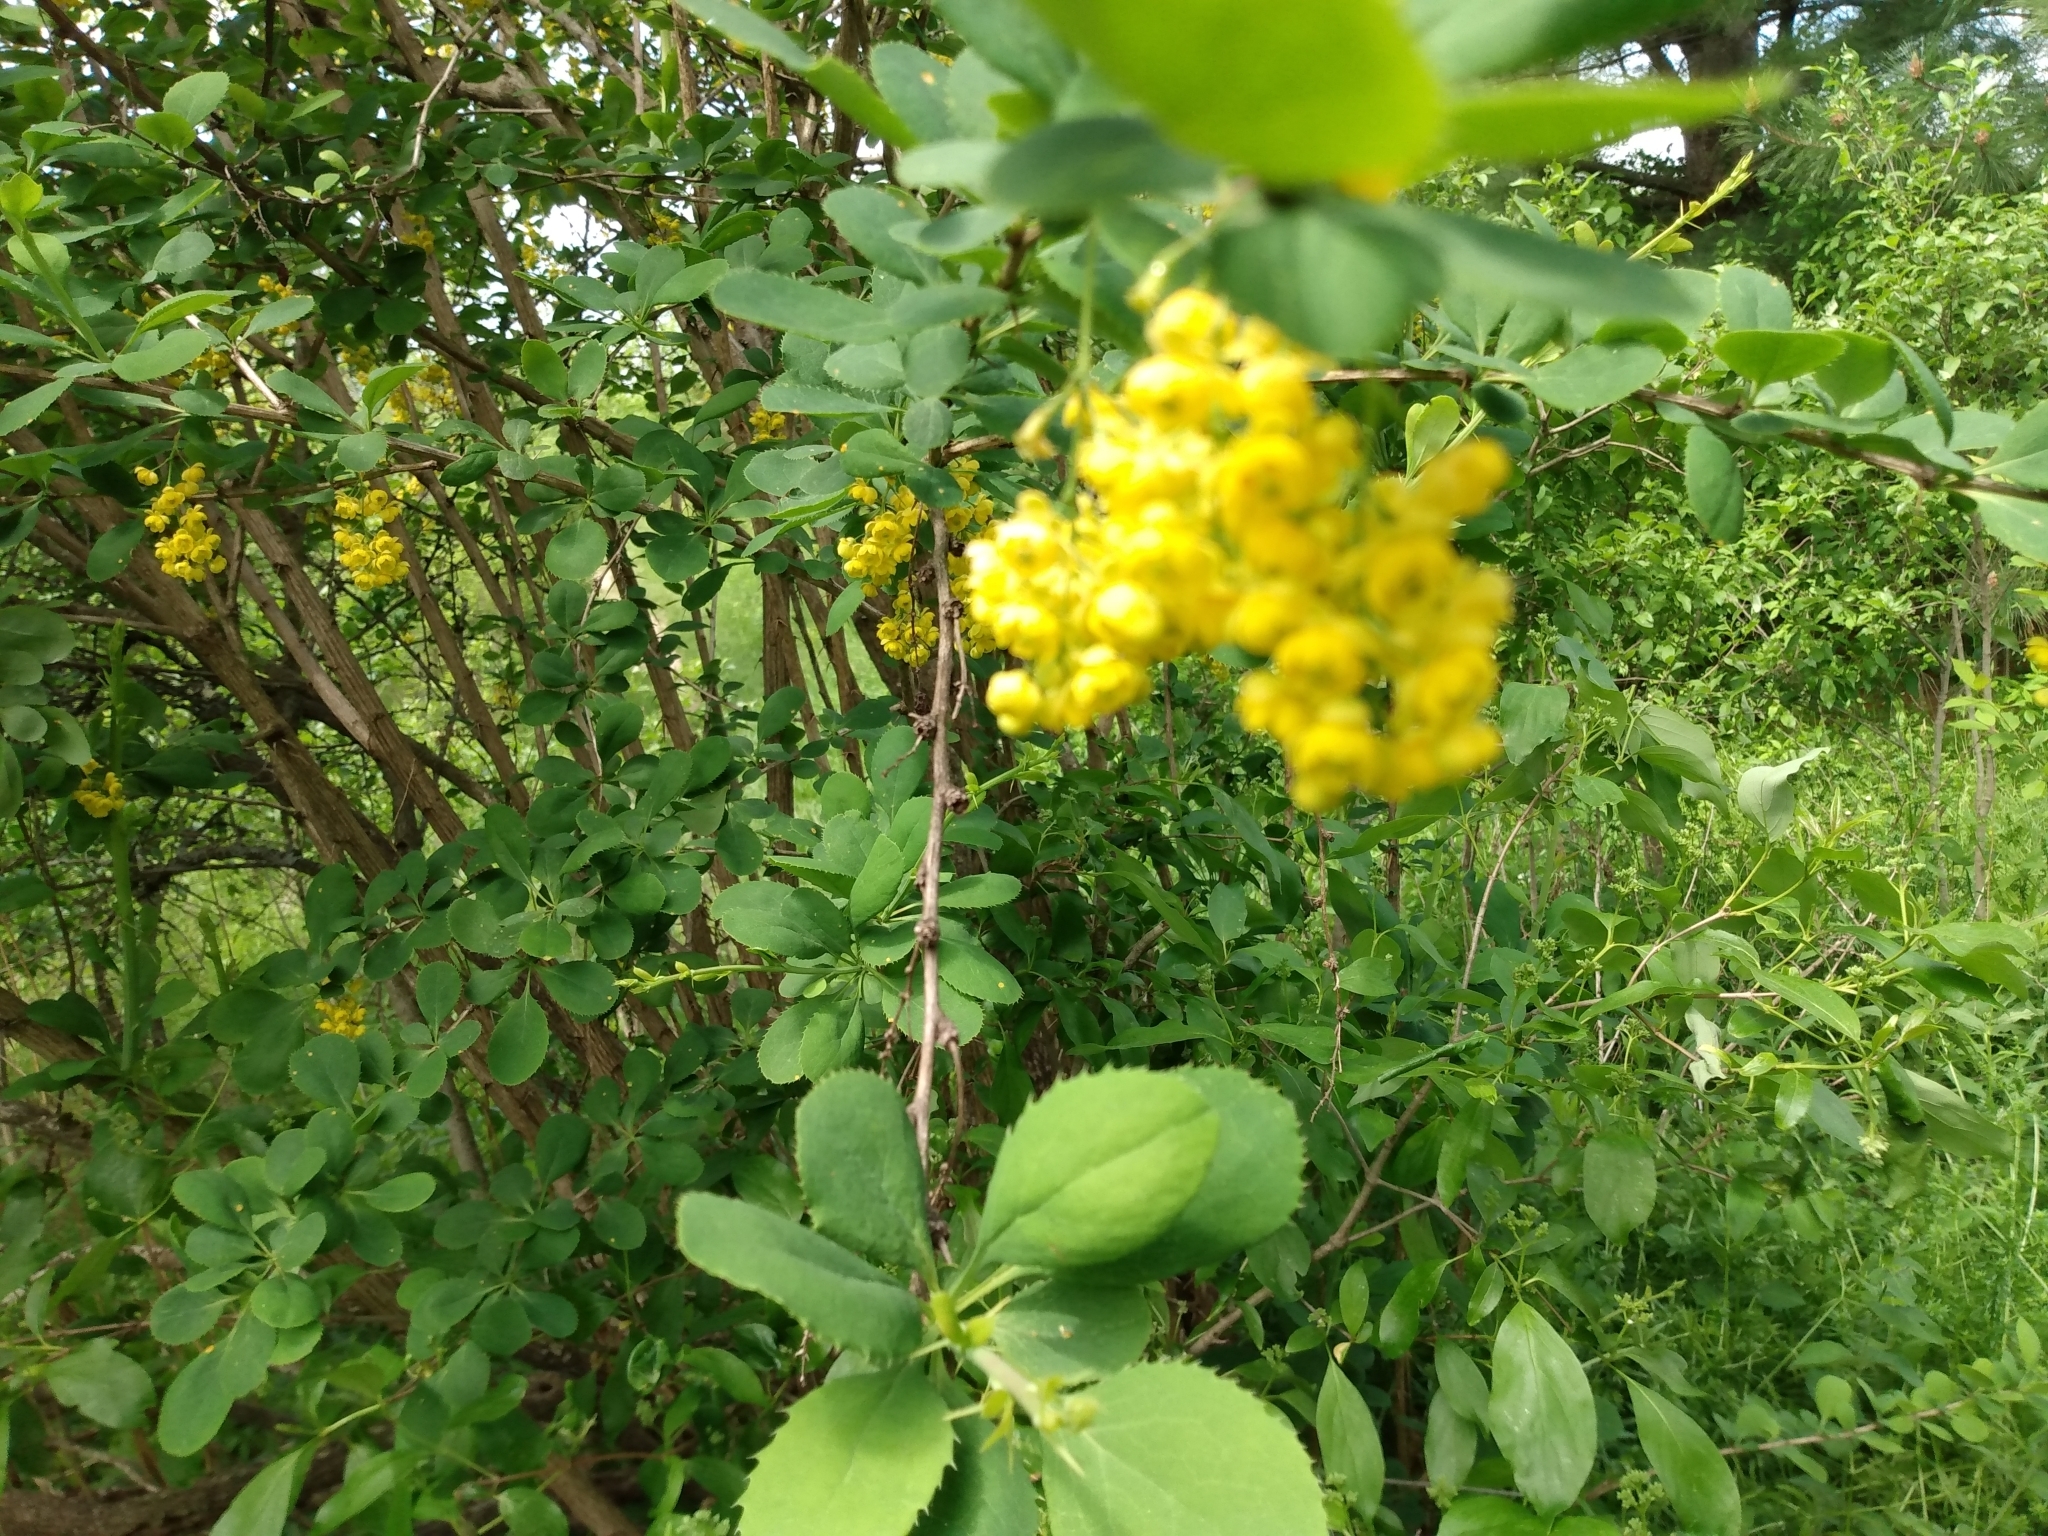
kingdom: Plantae
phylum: Tracheophyta
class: Magnoliopsida
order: Ranunculales
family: Berberidaceae
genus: Berberis
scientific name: Berberis vulgaris
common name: Barberry
